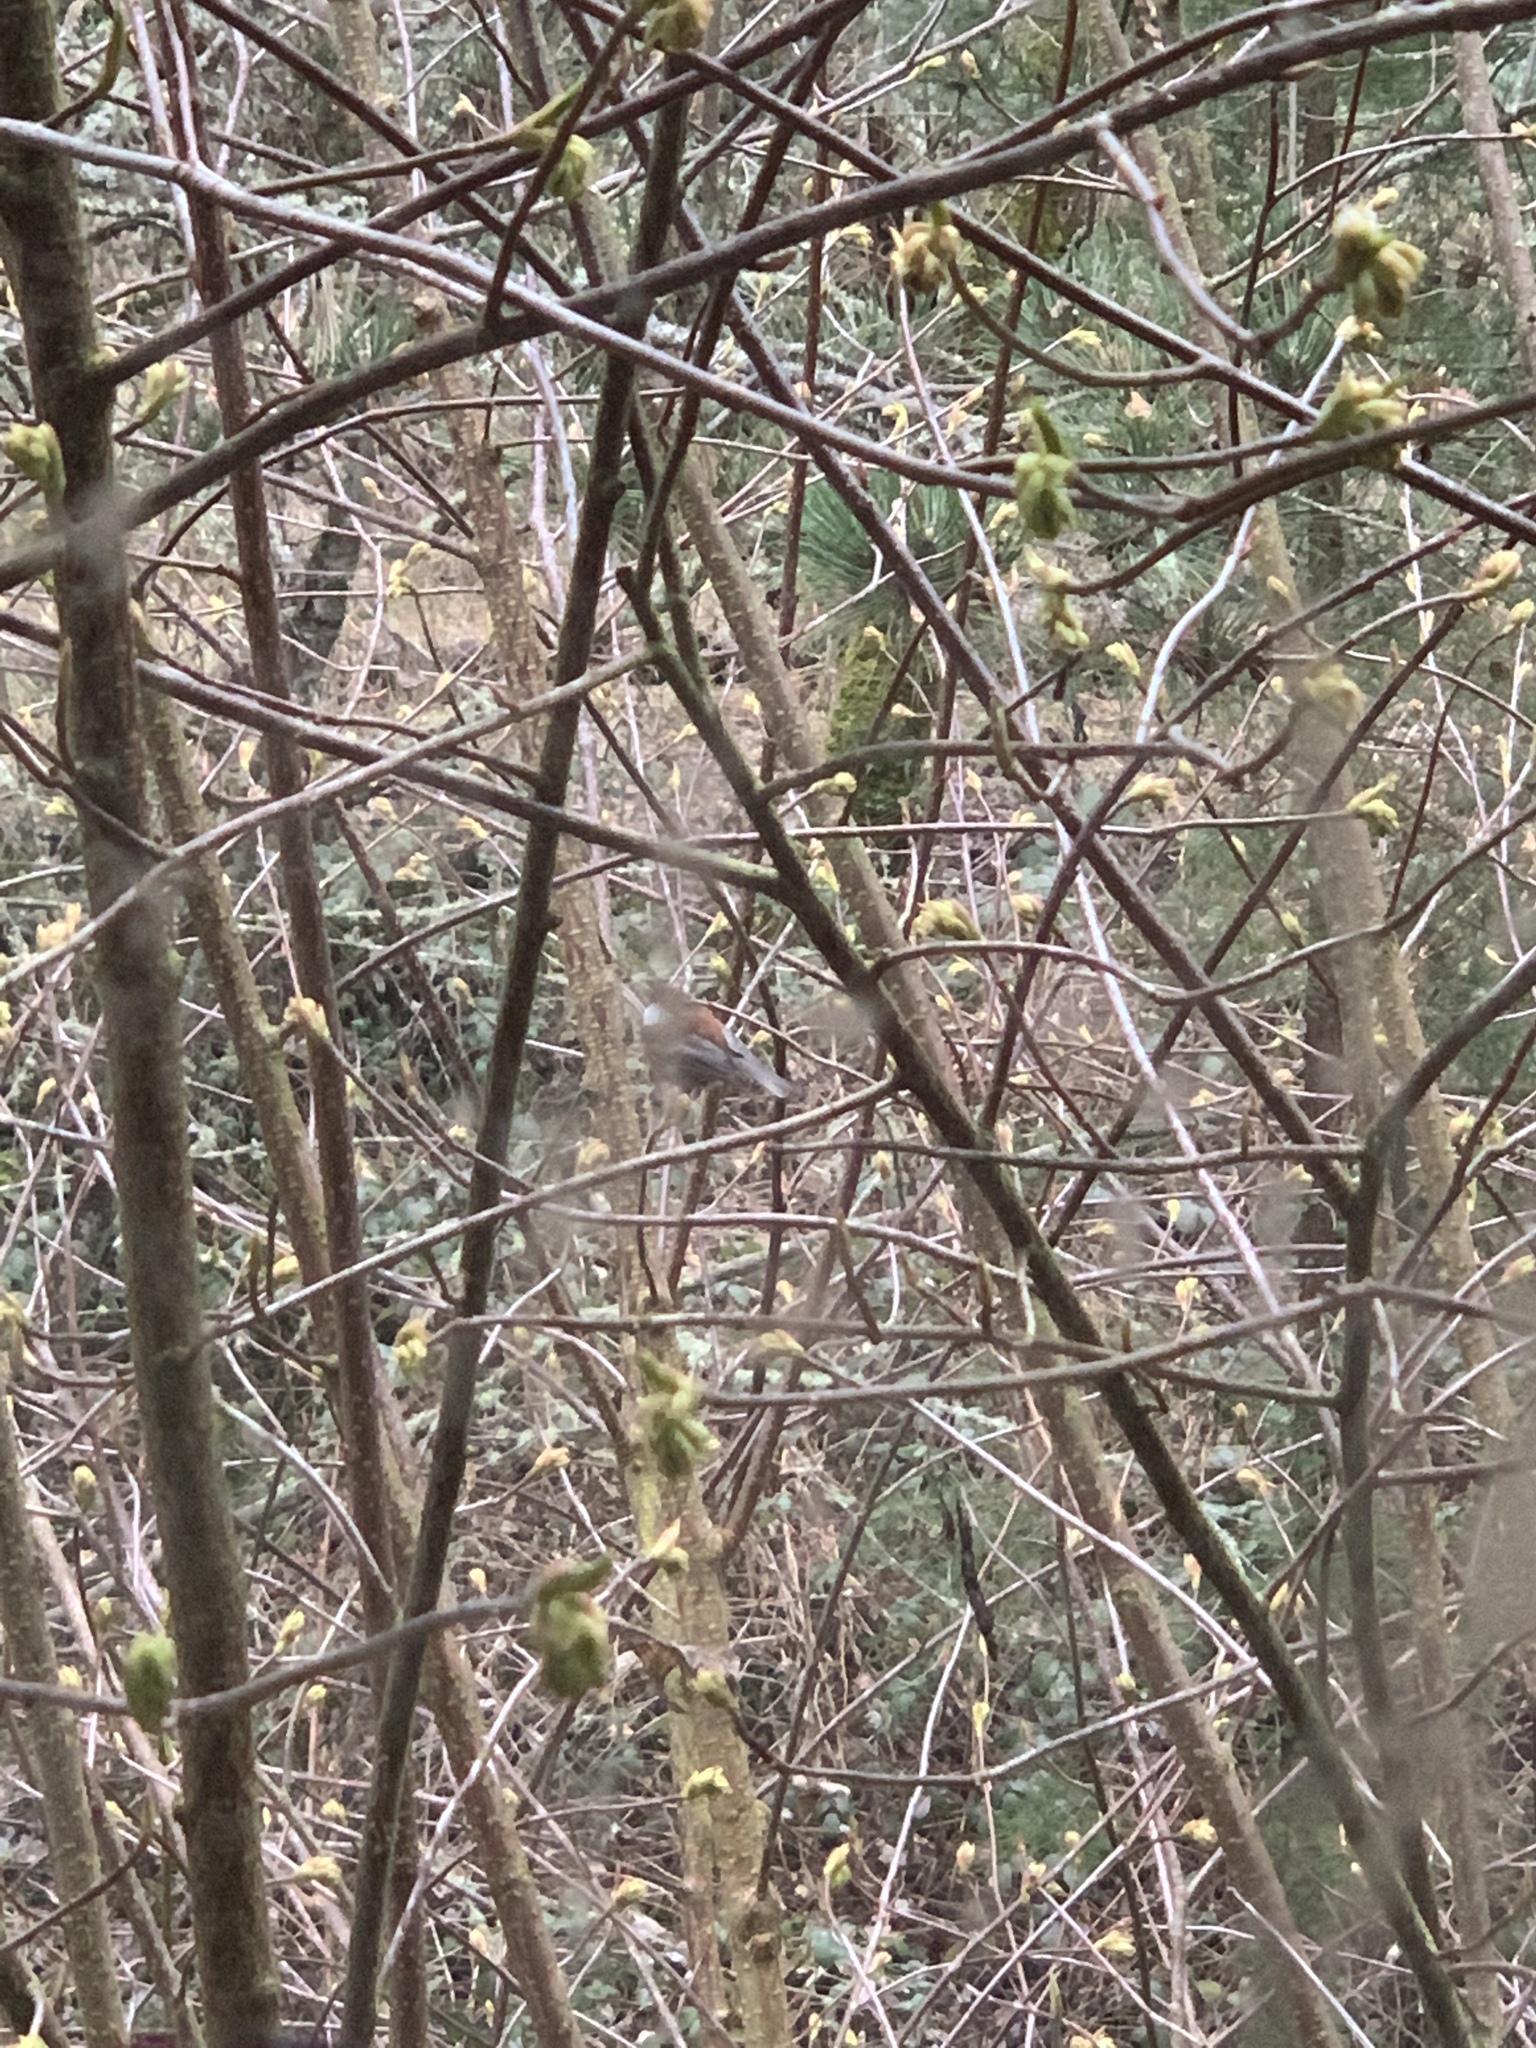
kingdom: Animalia
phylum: Chordata
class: Aves
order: Passeriformes
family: Paridae
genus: Poecile
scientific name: Poecile rufescens
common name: Chestnut-backed chickadee
